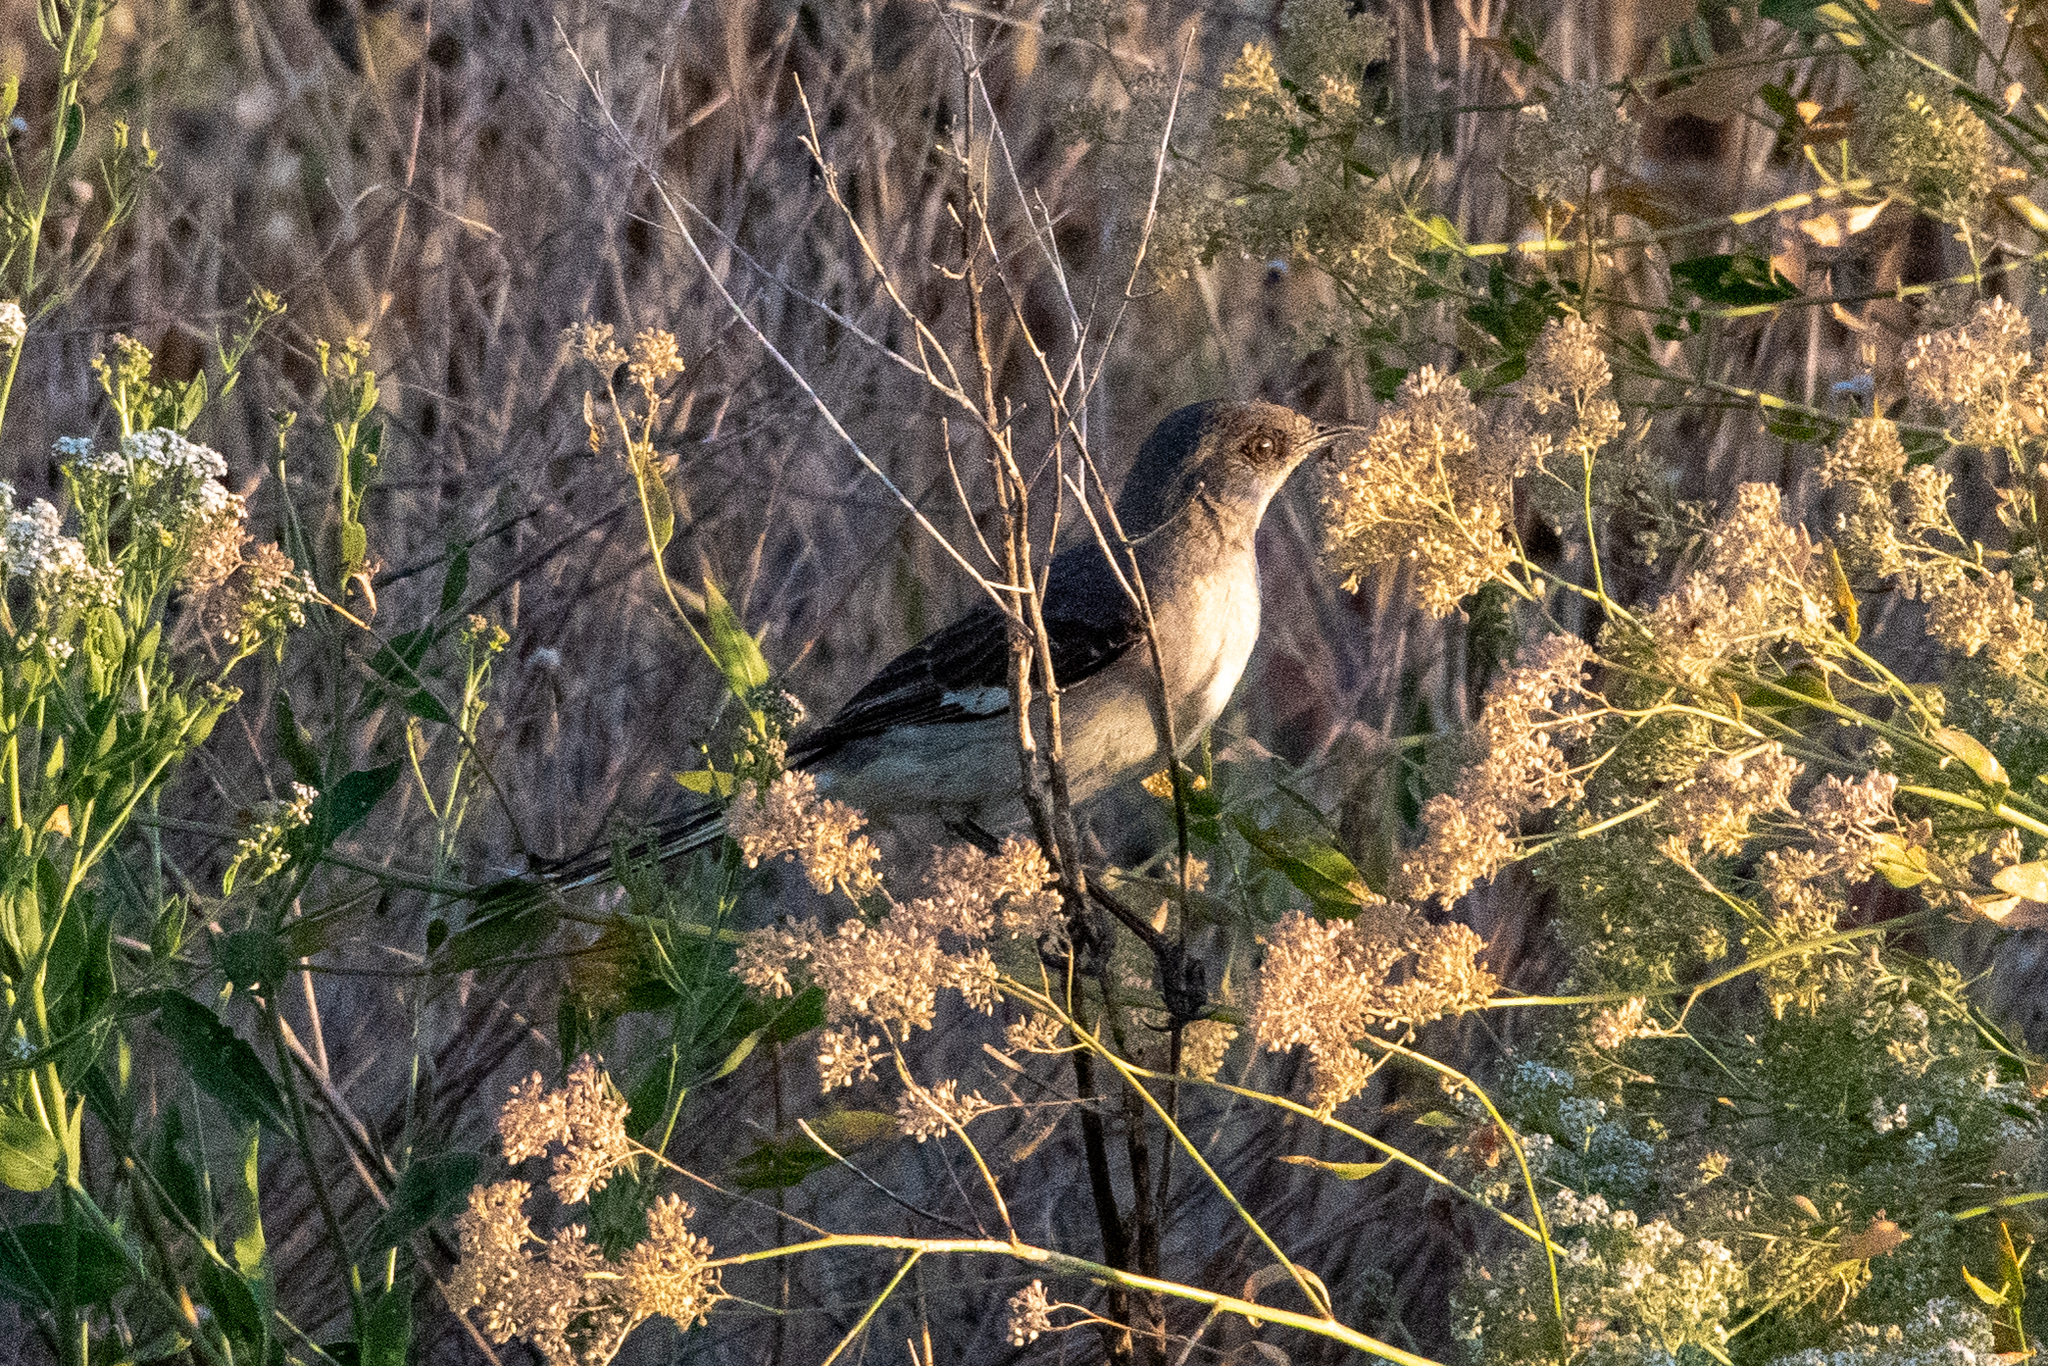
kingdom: Animalia
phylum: Chordata
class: Aves
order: Passeriformes
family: Mimidae
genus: Mimus
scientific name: Mimus polyglottos
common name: Northern mockingbird
